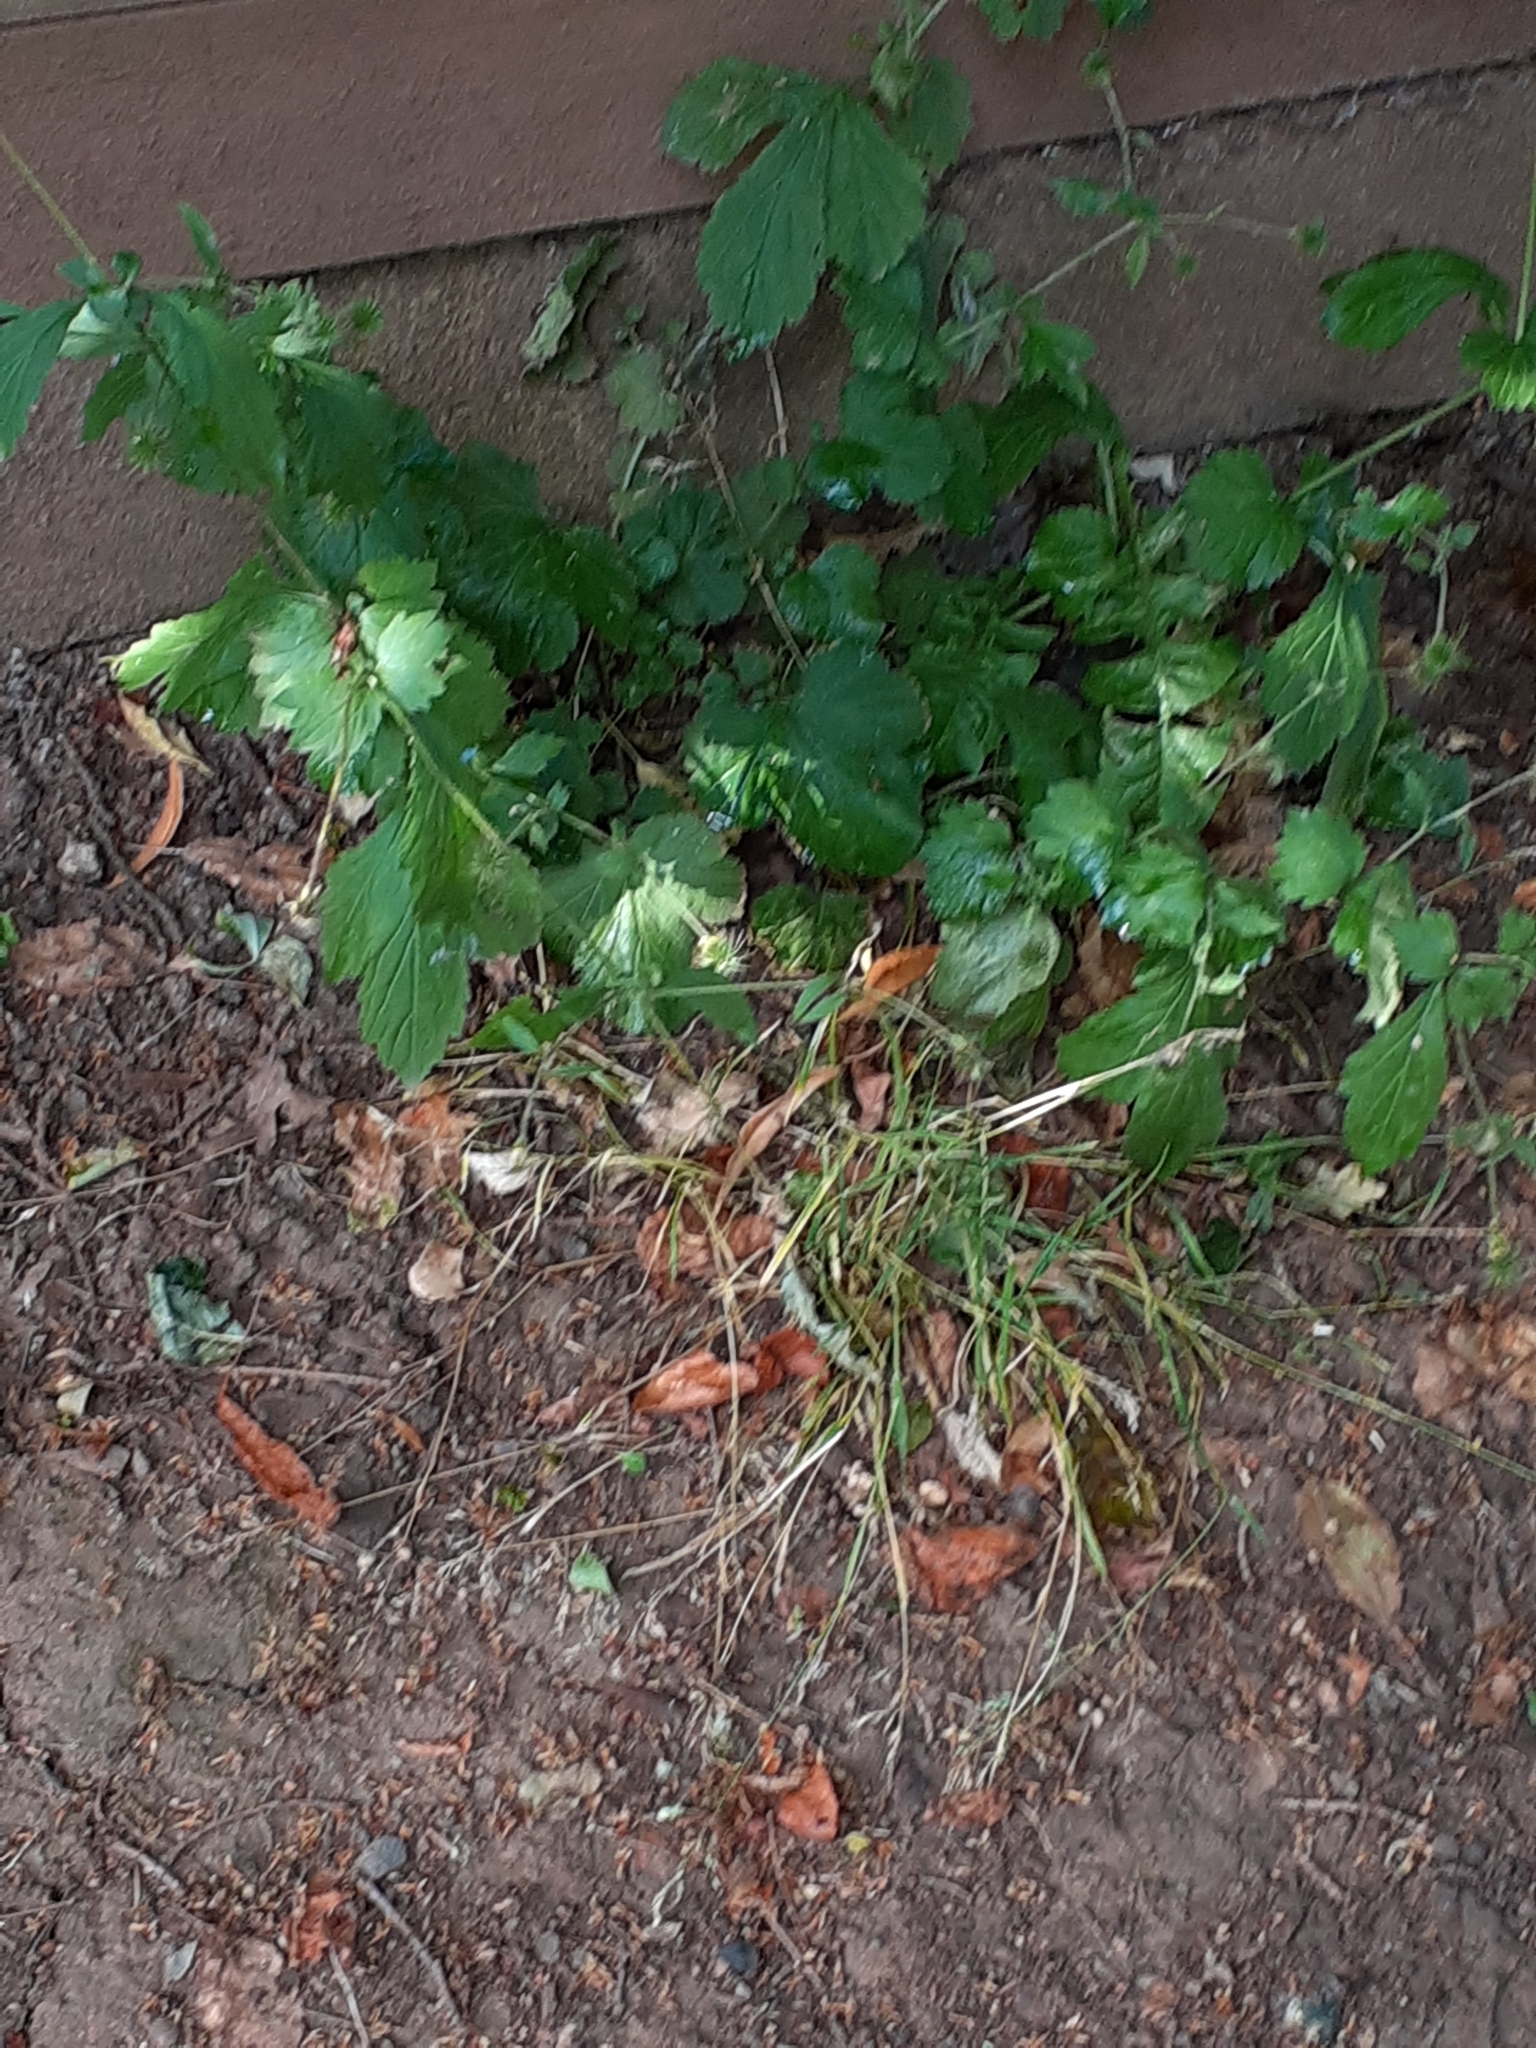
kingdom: Plantae
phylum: Tracheophyta
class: Magnoliopsida
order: Rosales
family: Rosaceae
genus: Geum
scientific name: Geum urbanum
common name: Wood avens
